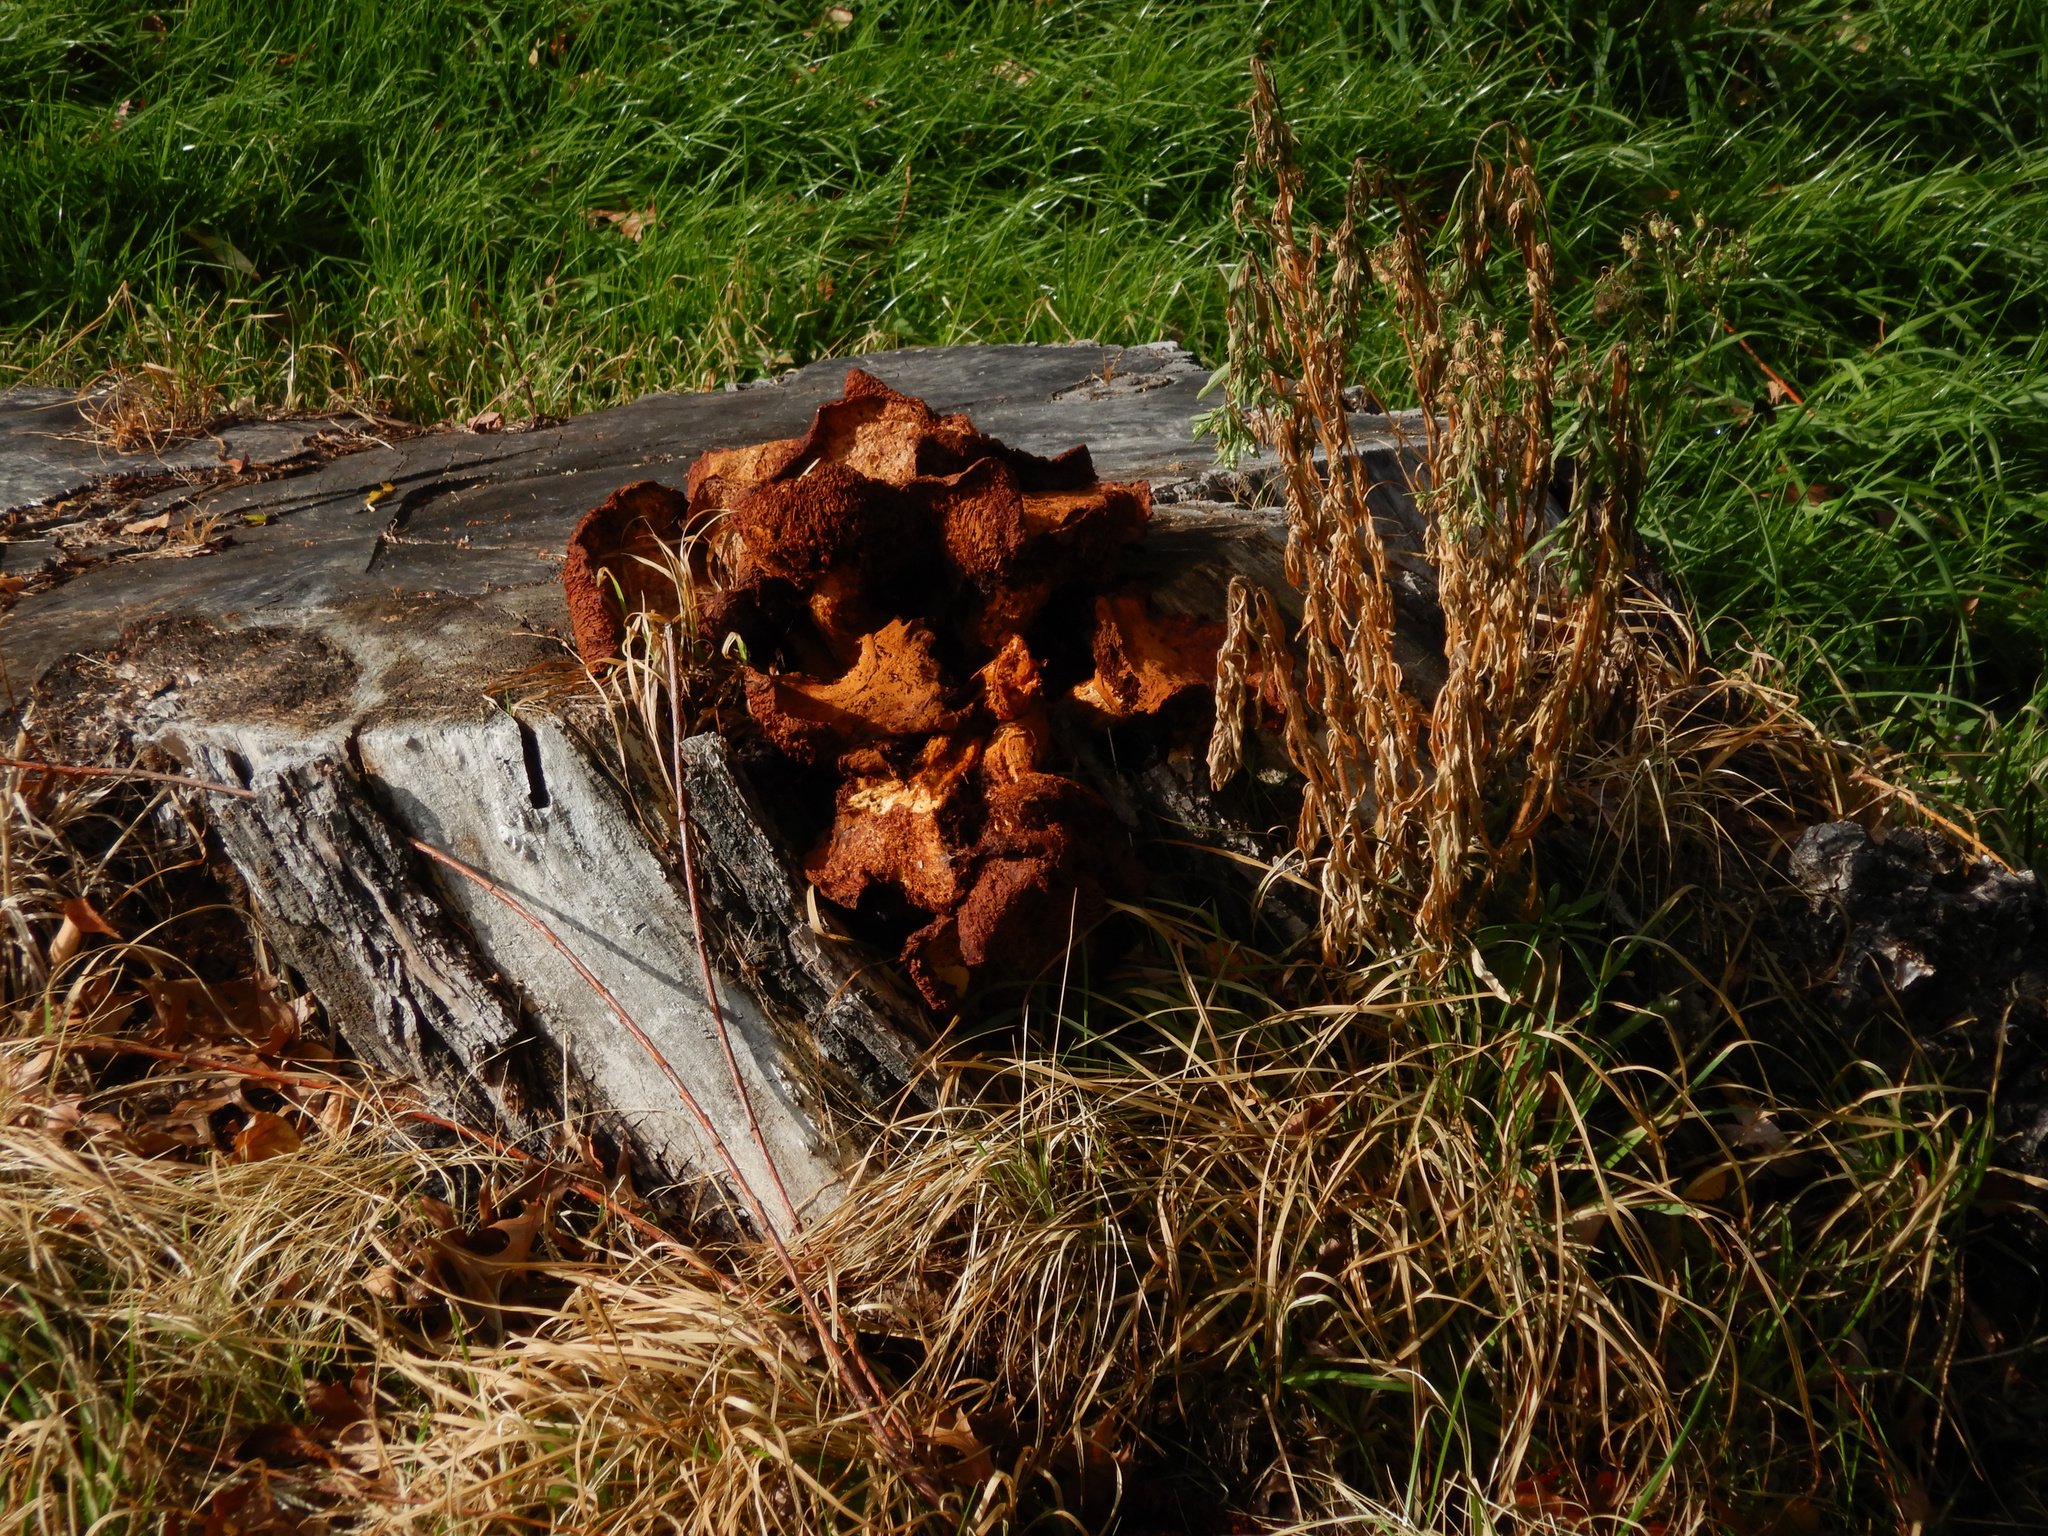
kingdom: Fungi
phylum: Basidiomycota
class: Agaricomycetes
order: Agaricales
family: Hymenogastraceae
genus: Gymnopilus
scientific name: Gymnopilus junonius
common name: Spectacular rustgill
